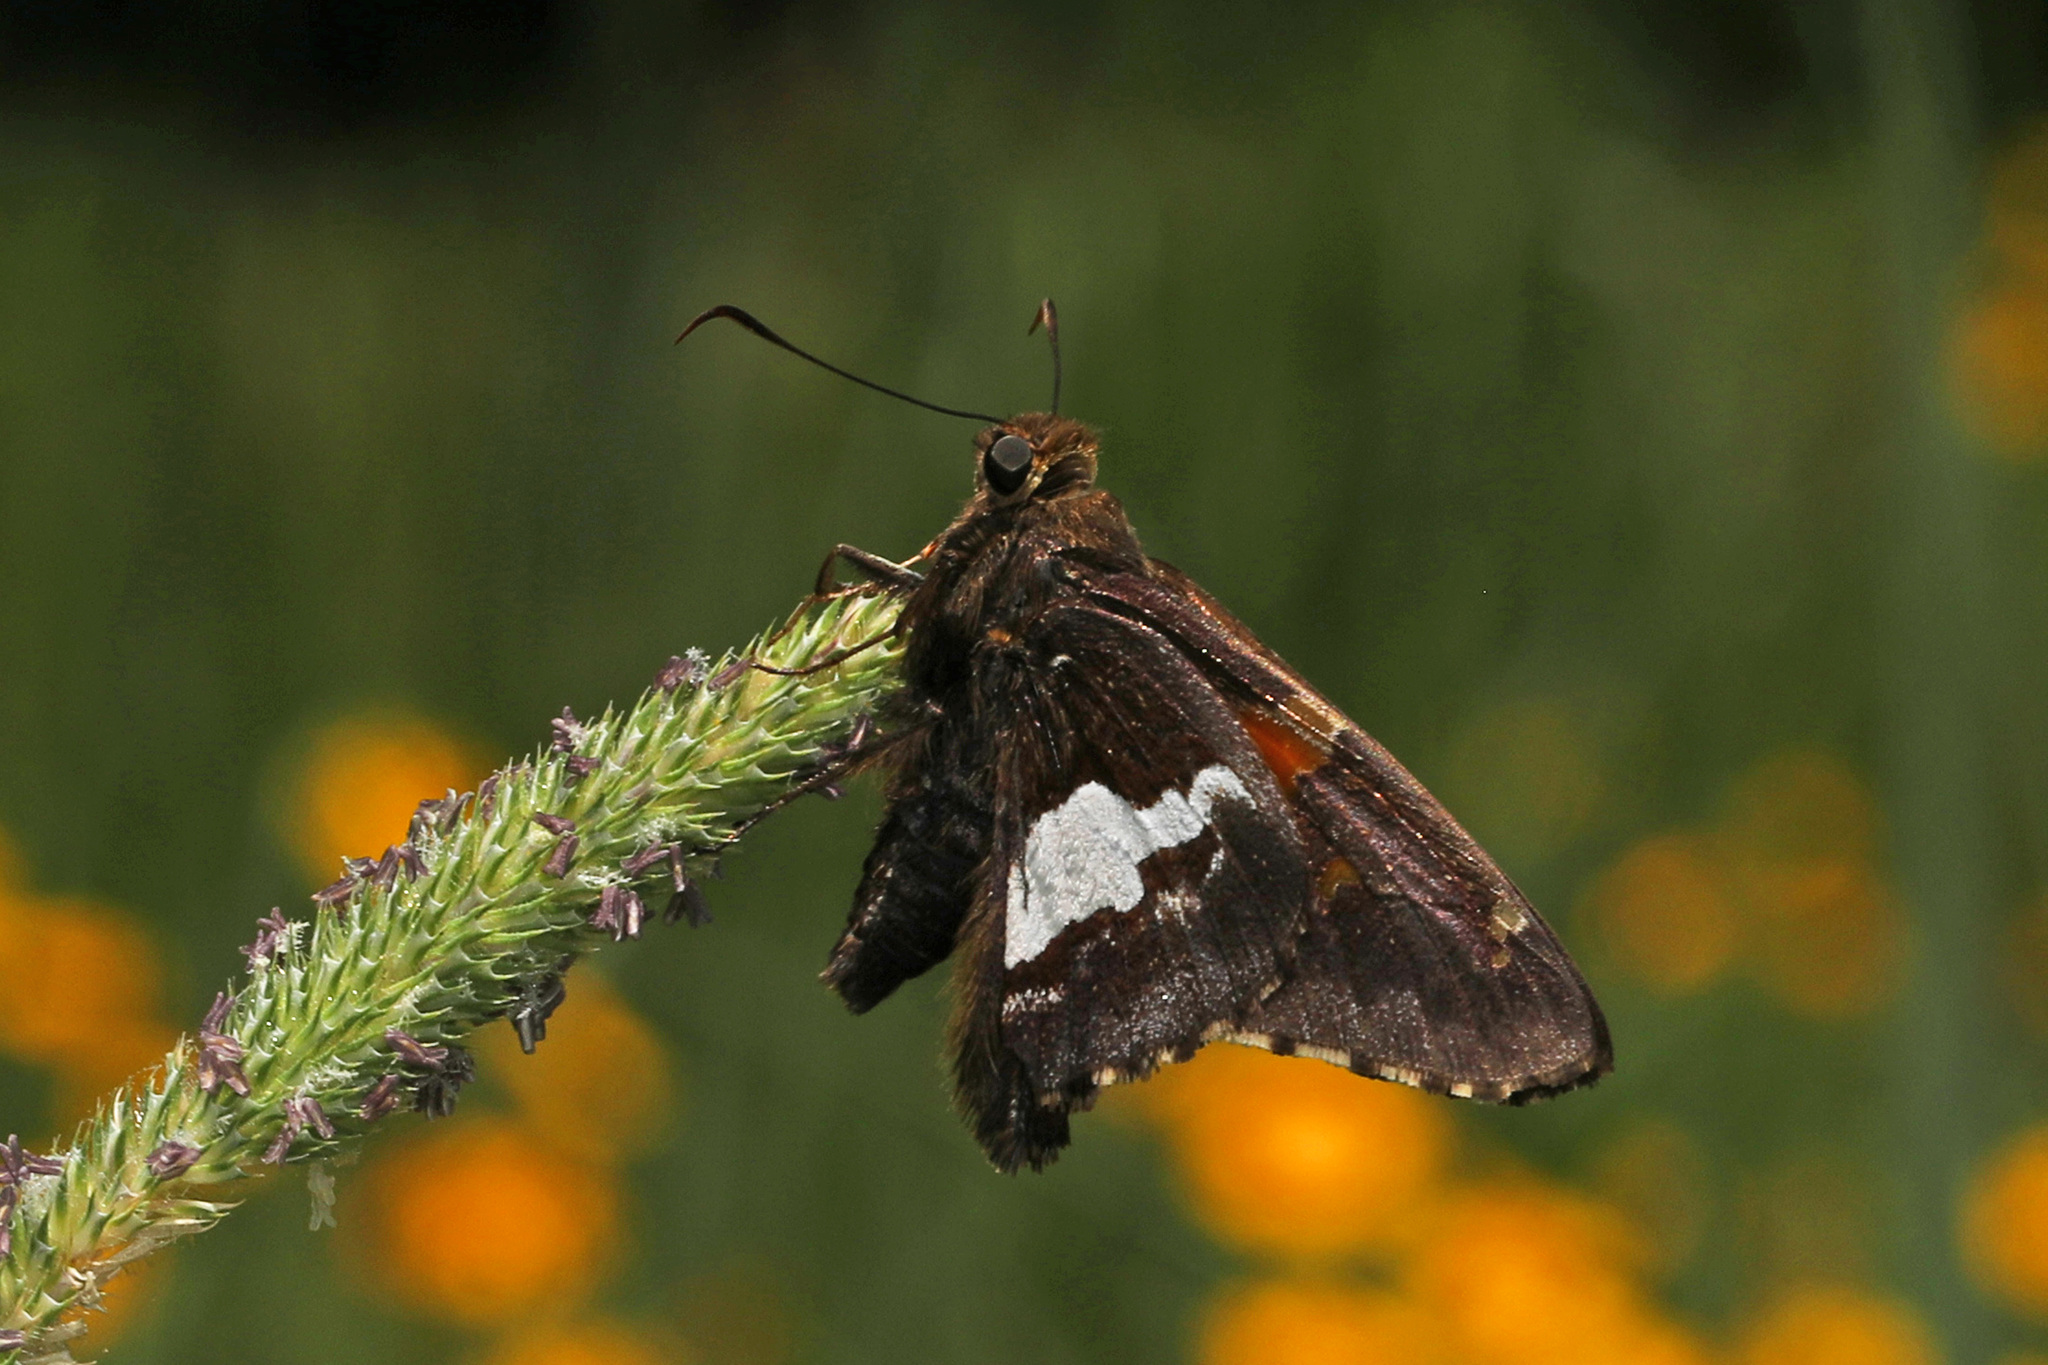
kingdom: Animalia
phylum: Arthropoda
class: Insecta
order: Lepidoptera
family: Hesperiidae
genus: Epargyreus
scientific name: Epargyreus clarus
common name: Silver-spotted skipper
